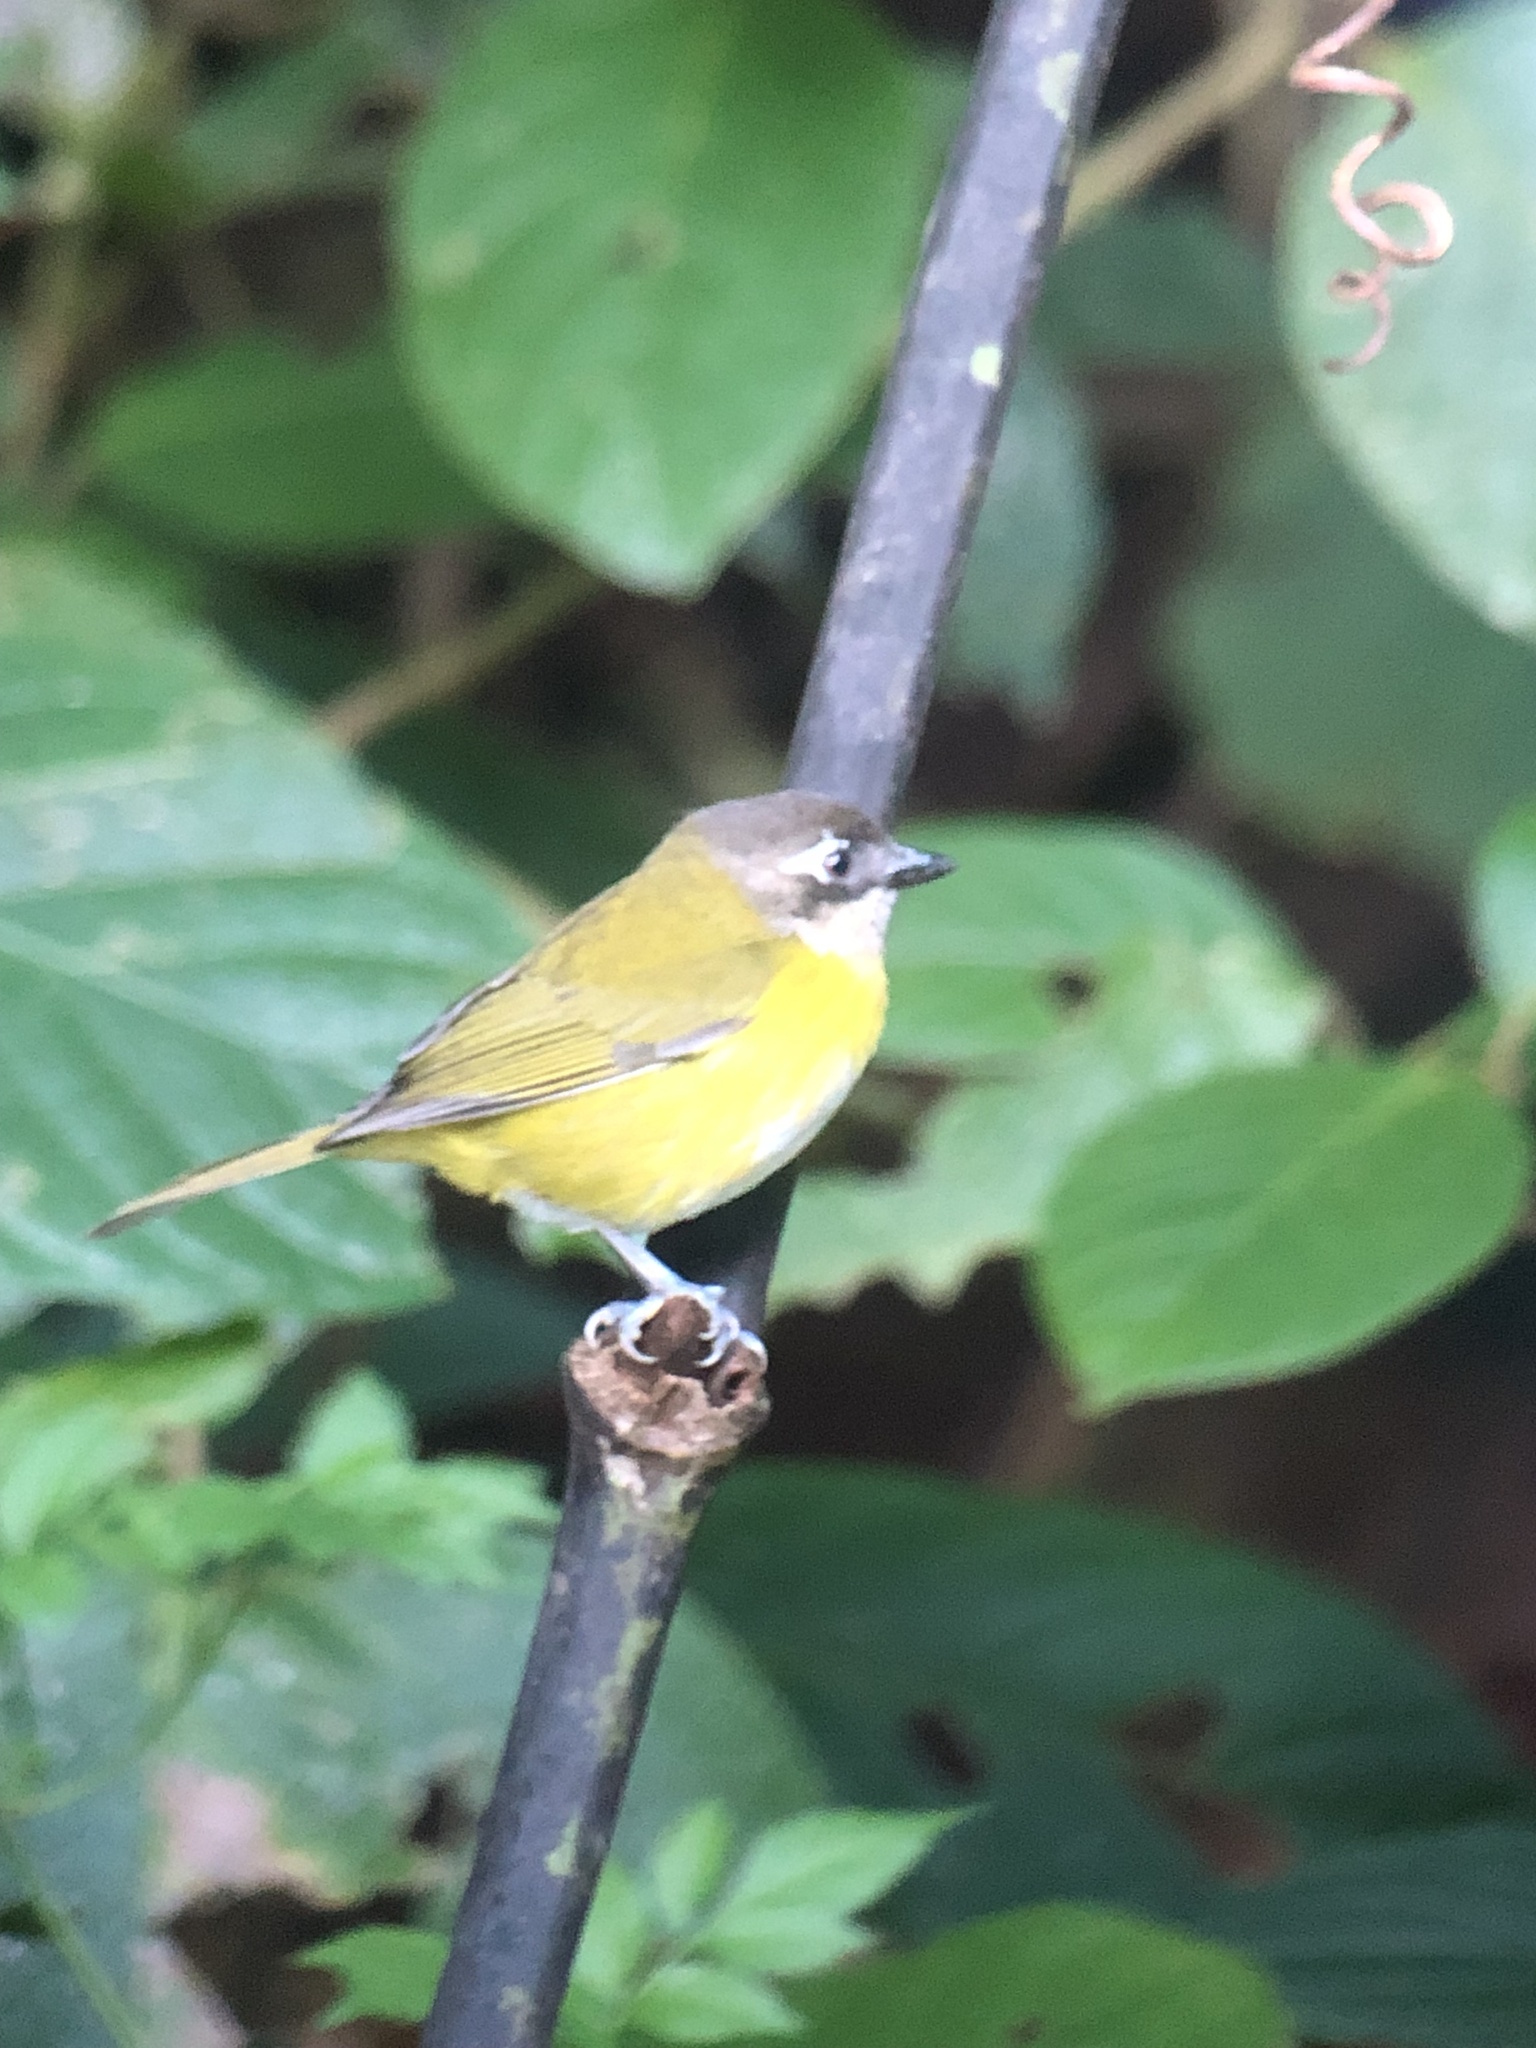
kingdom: Animalia
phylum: Chordata
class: Aves
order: Passeriformes
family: Passerellidae
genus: Chlorospingus
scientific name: Chlorospingus flavopectus
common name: Common chlorospingus
